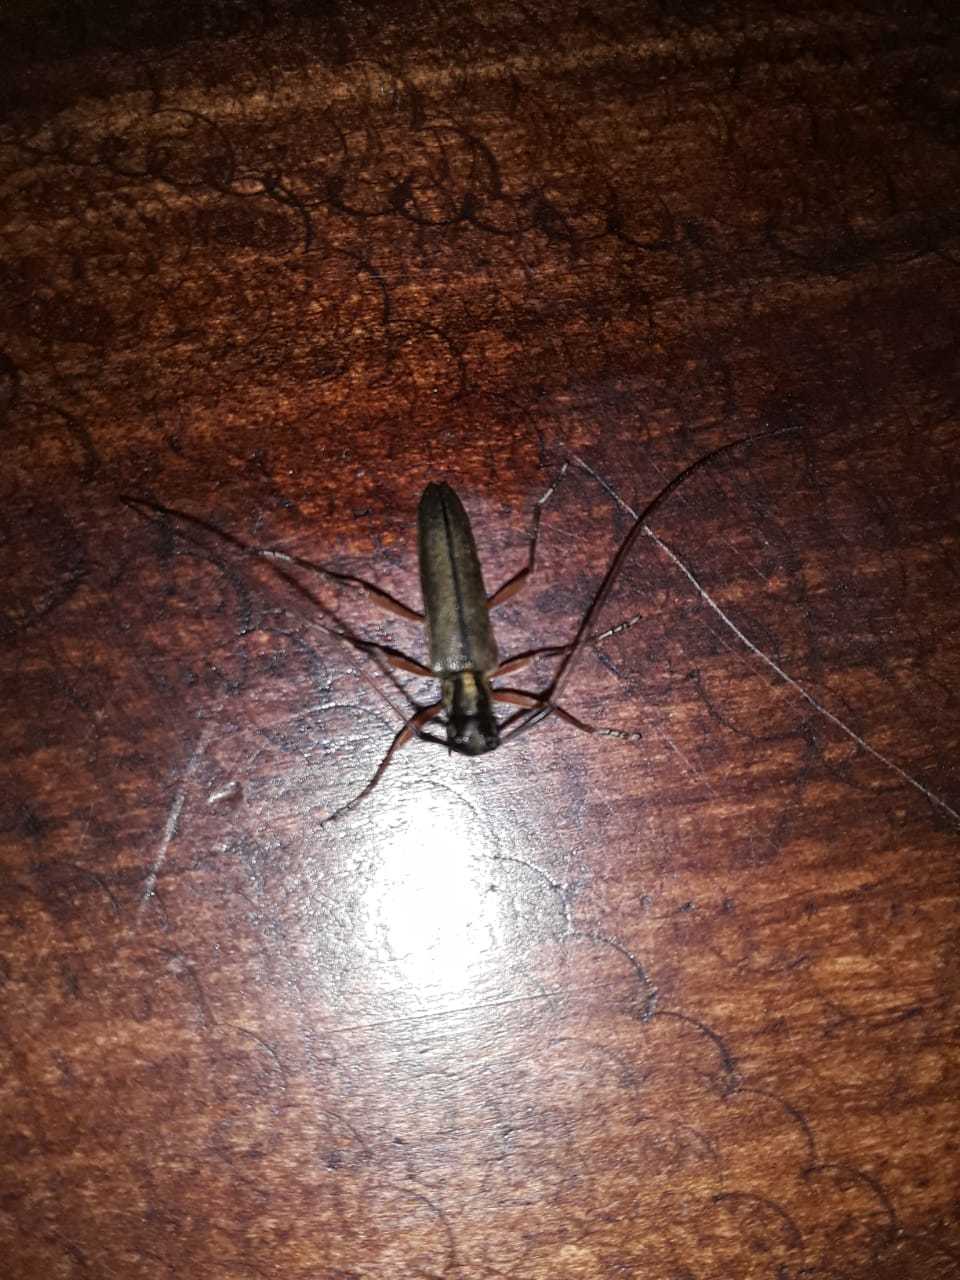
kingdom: Animalia
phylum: Arthropoda
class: Insecta
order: Coleoptera
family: Cerambycidae
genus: Grammopsoides
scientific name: Grammopsoides tenuicornis
